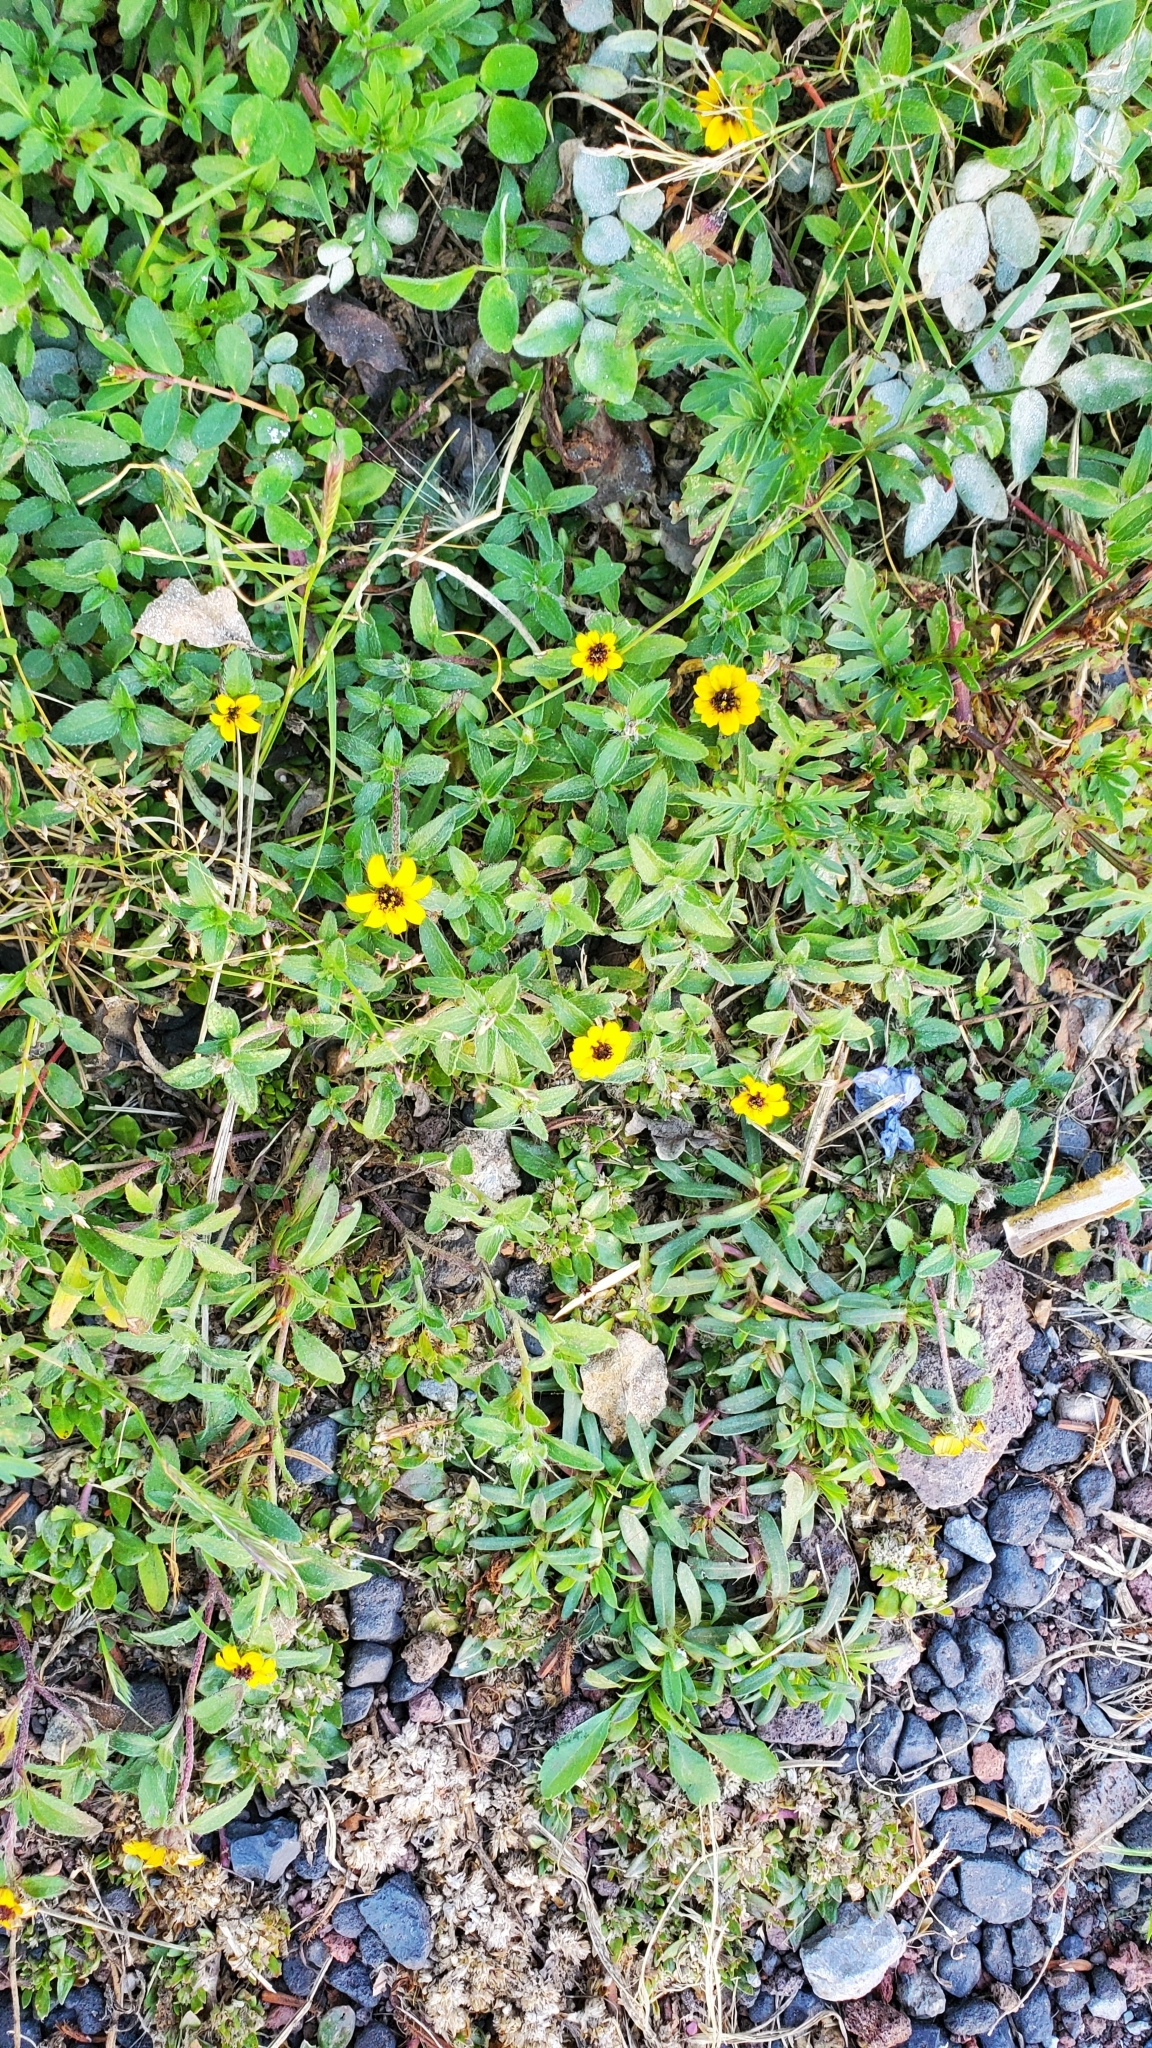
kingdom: Plantae
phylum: Tracheophyta
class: Magnoliopsida
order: Asterales
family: Asteraceae
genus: Tagetes
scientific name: Tagetes lunulata
